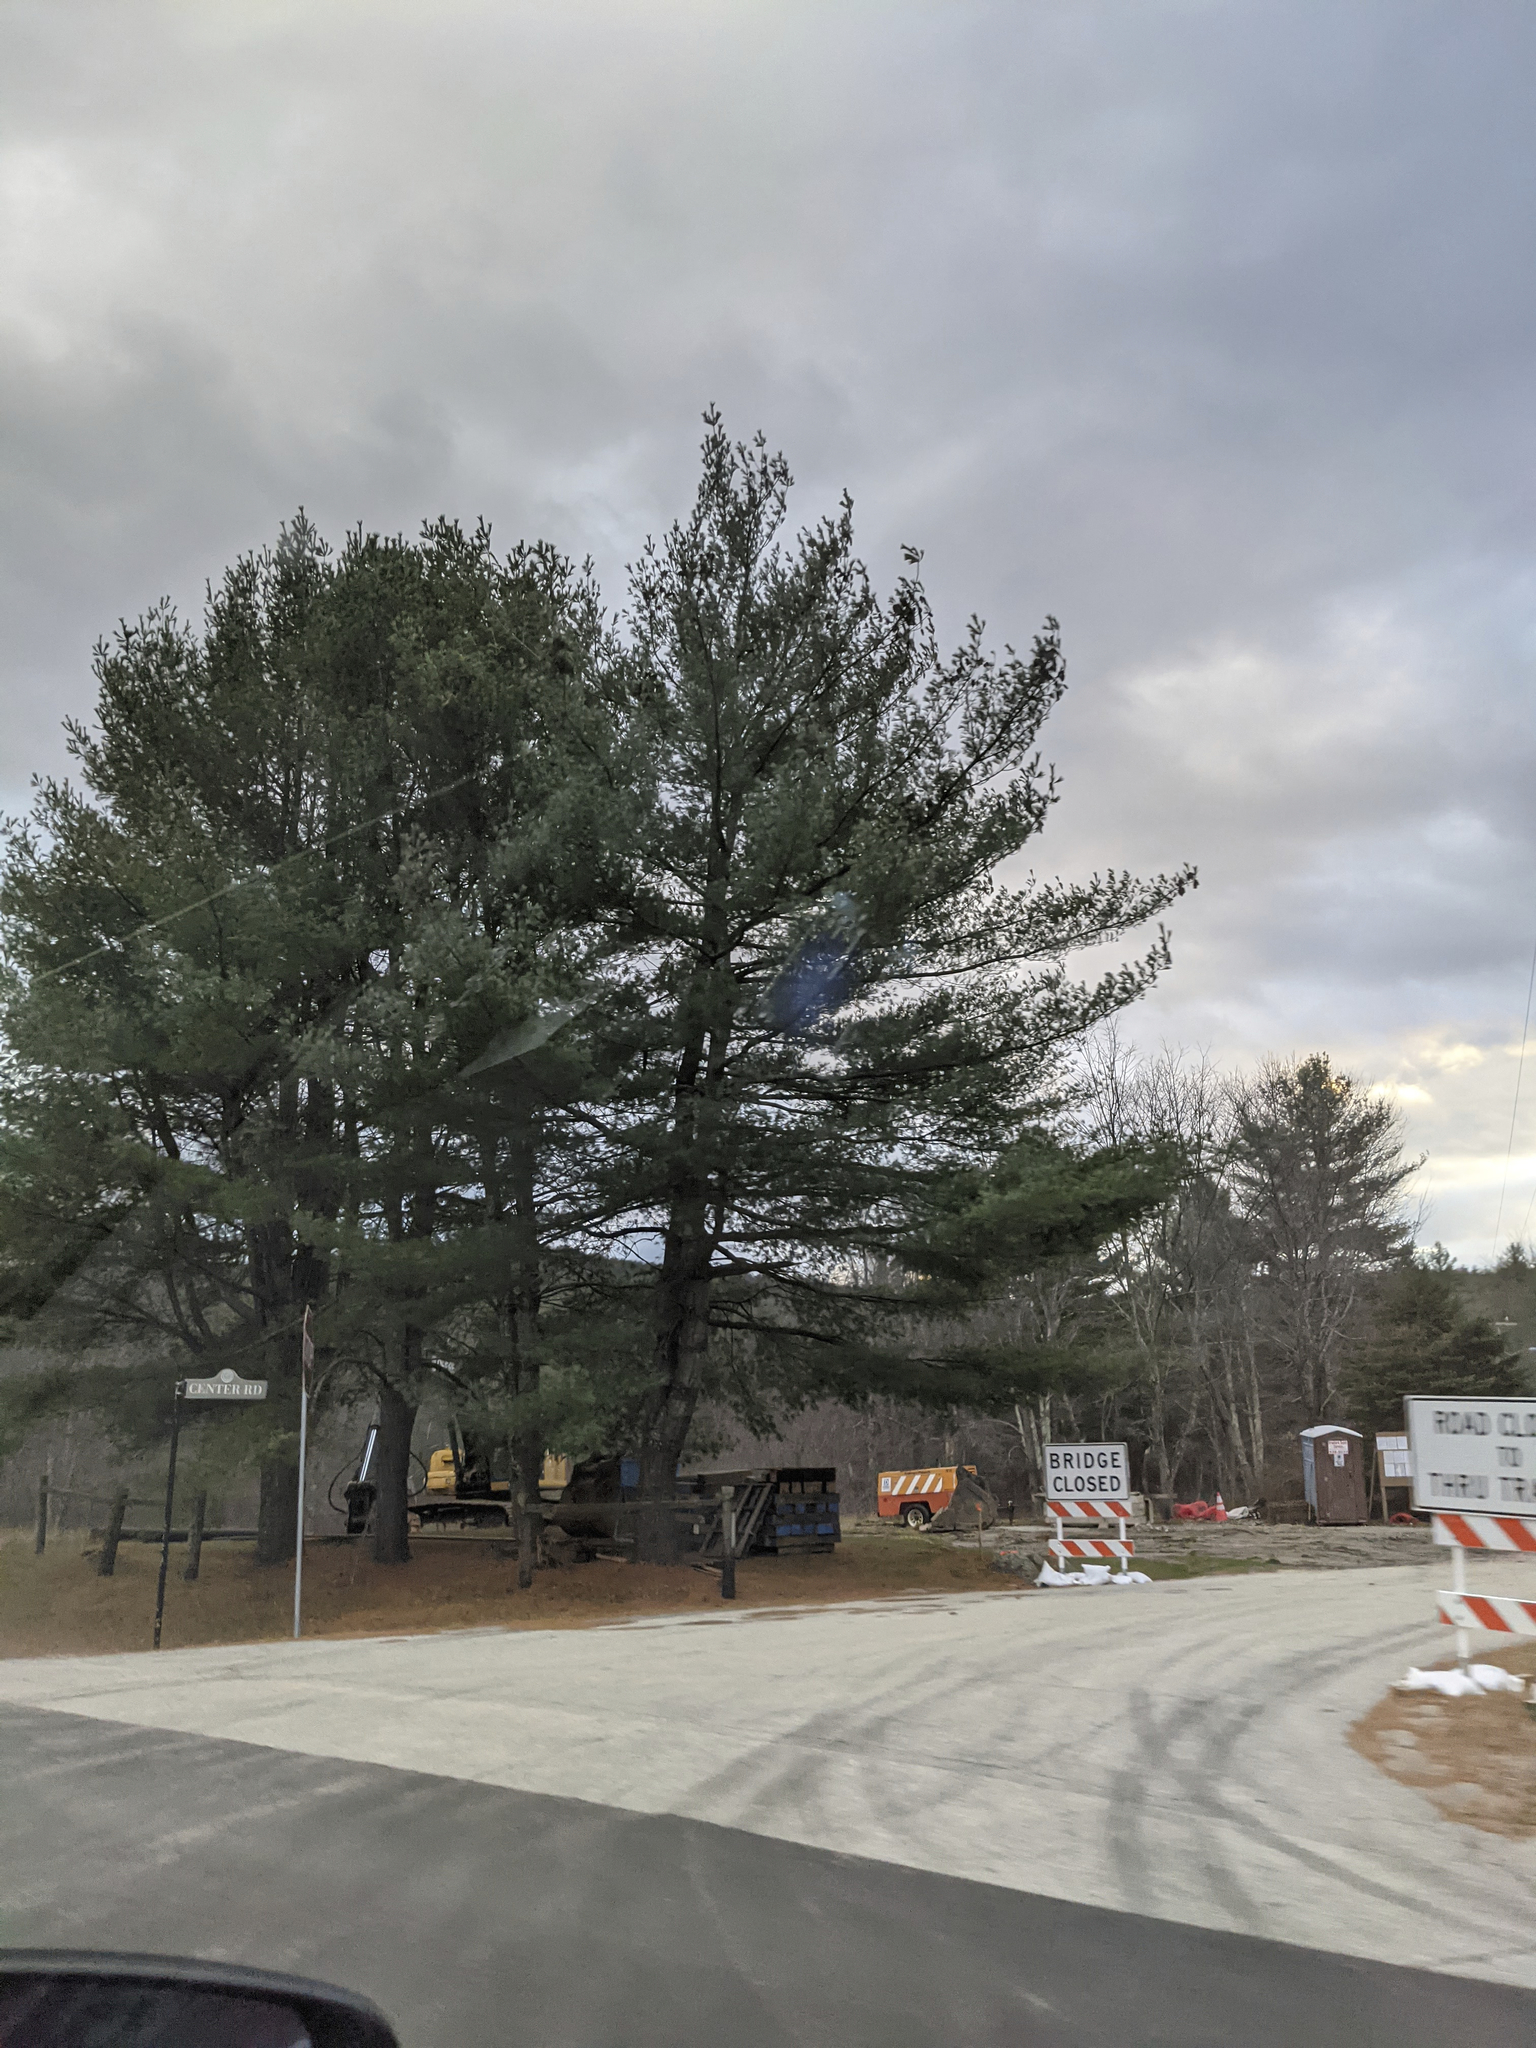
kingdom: Plantae
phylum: Tracheophyta
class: Pinopsida
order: Pinales
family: Pinaceae
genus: Pinus
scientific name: Pinus strobus
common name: Weymouth pine
